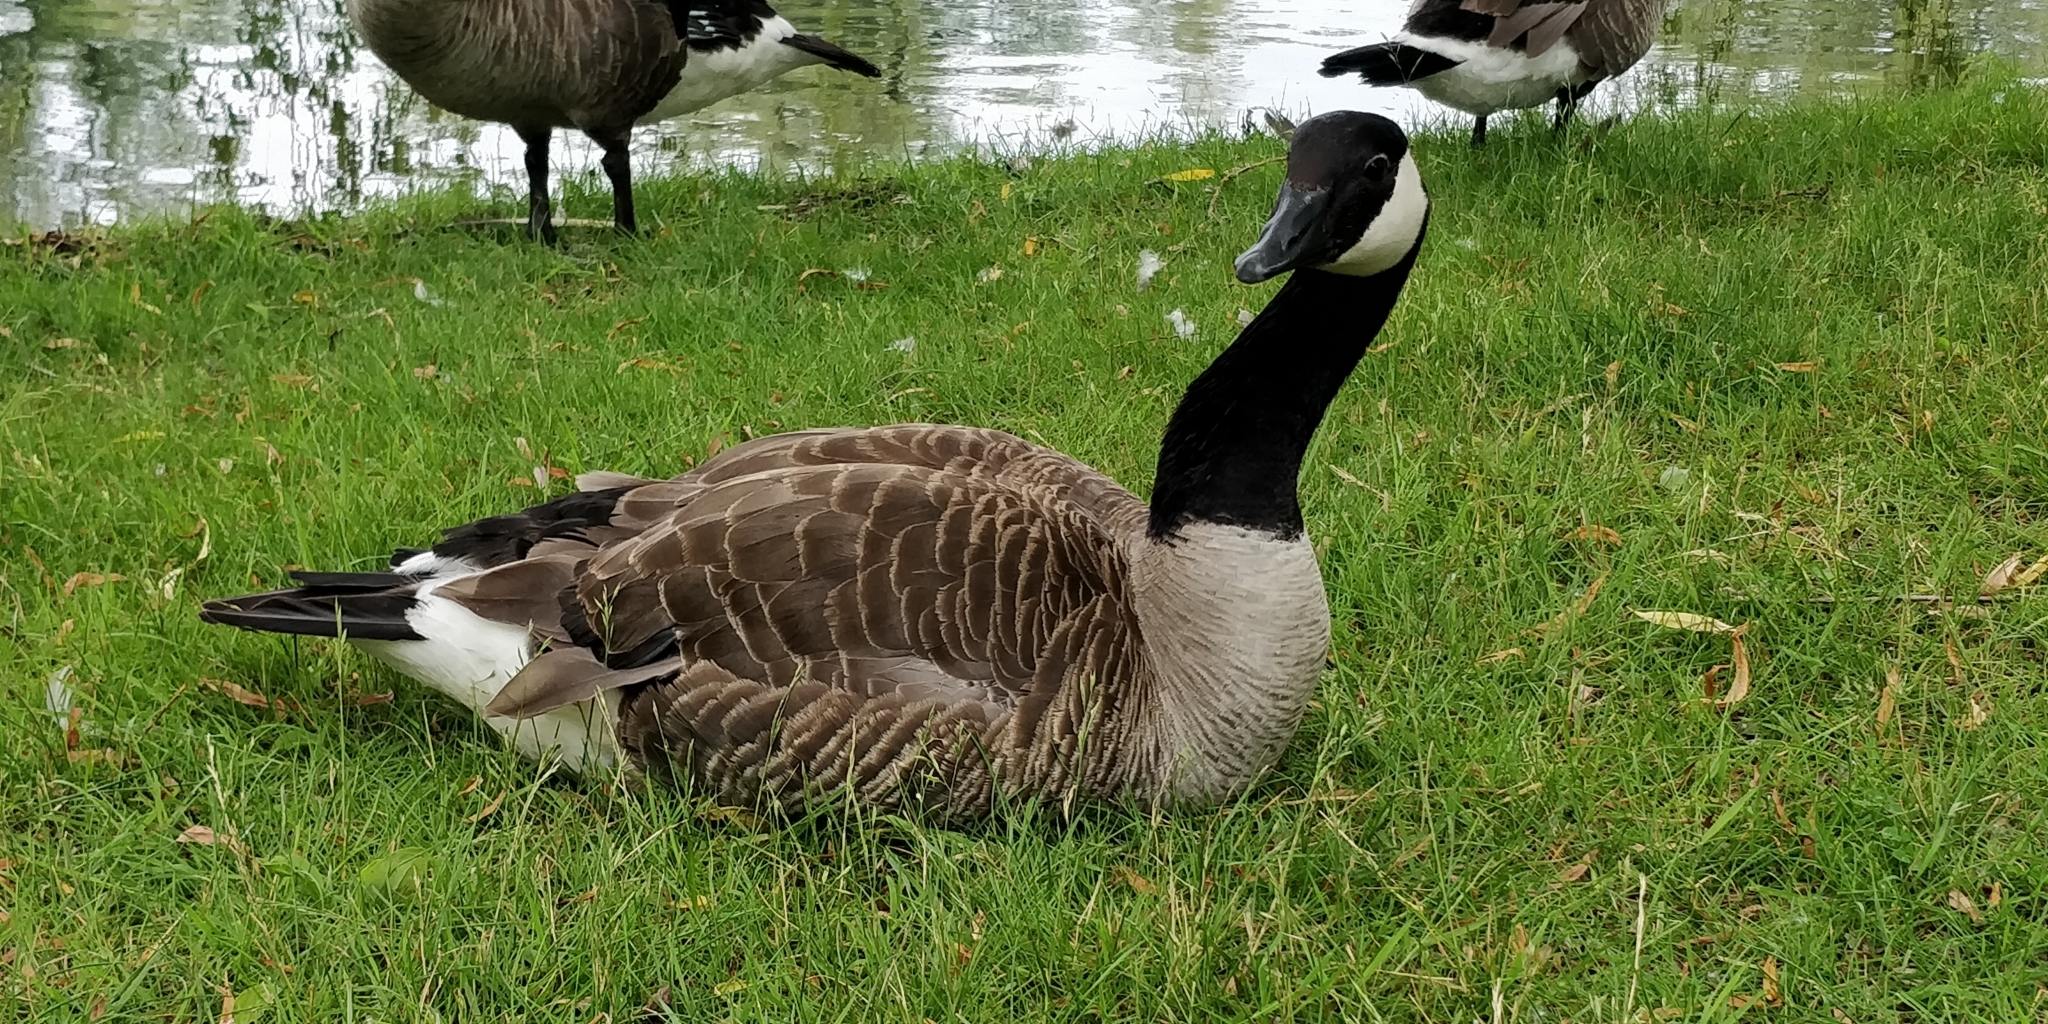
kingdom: Animalia
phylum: Chordata
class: Aves
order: Anseriformes
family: Anatidae
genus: Branta
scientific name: Branta canadensis
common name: Canada goose
